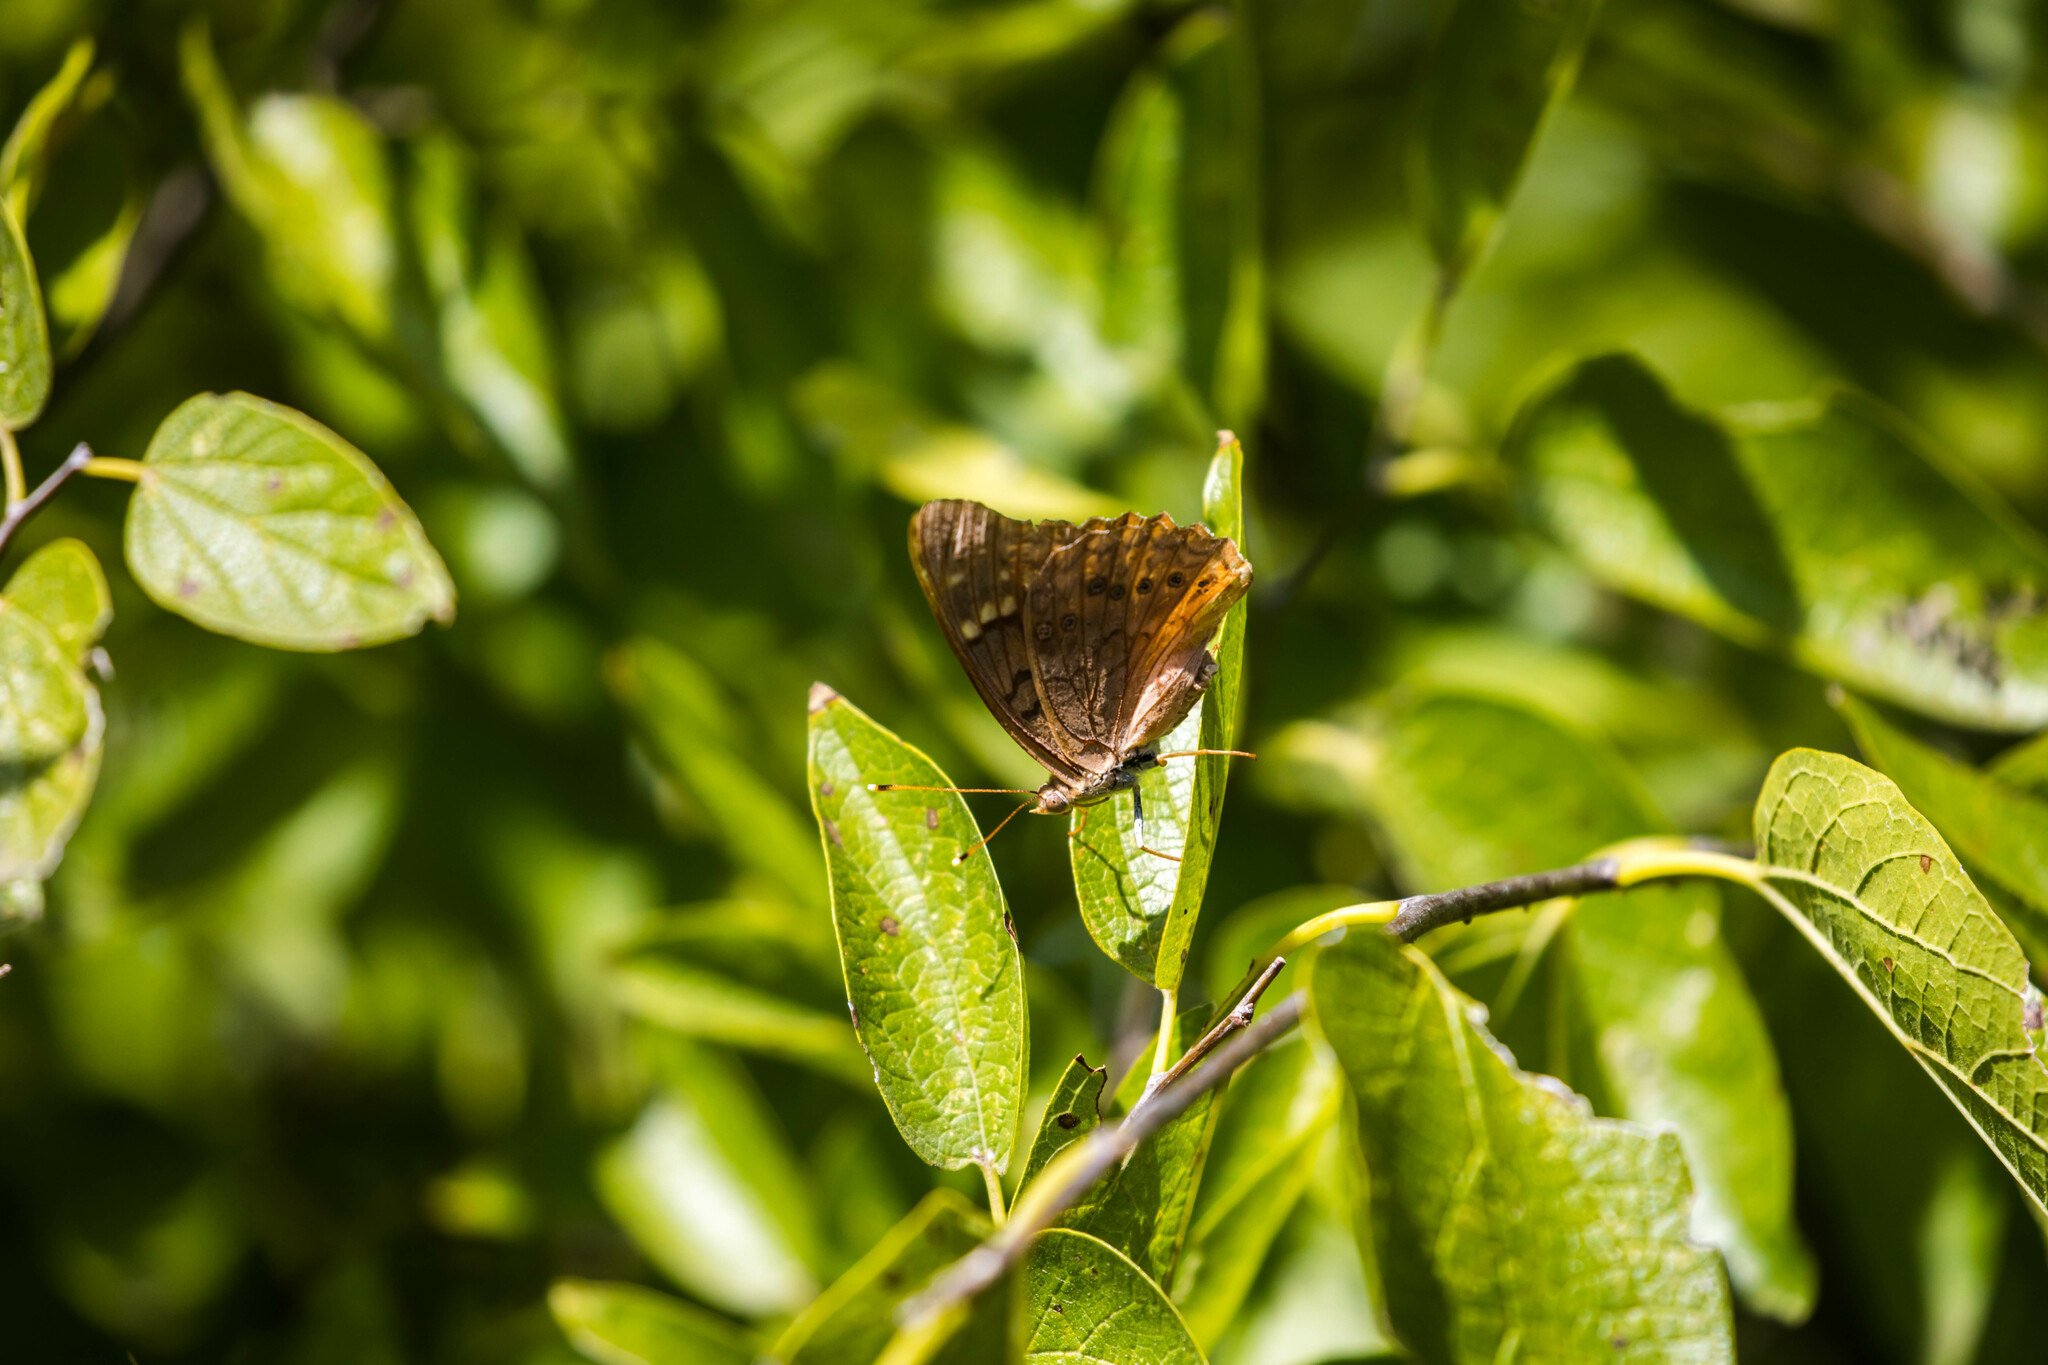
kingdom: Animalia
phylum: Arthropoda
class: Insecta
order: Lepidoptera
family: Nymphalidae
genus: Asterocampa
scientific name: Asterocampa clyton
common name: Tawny emperor
